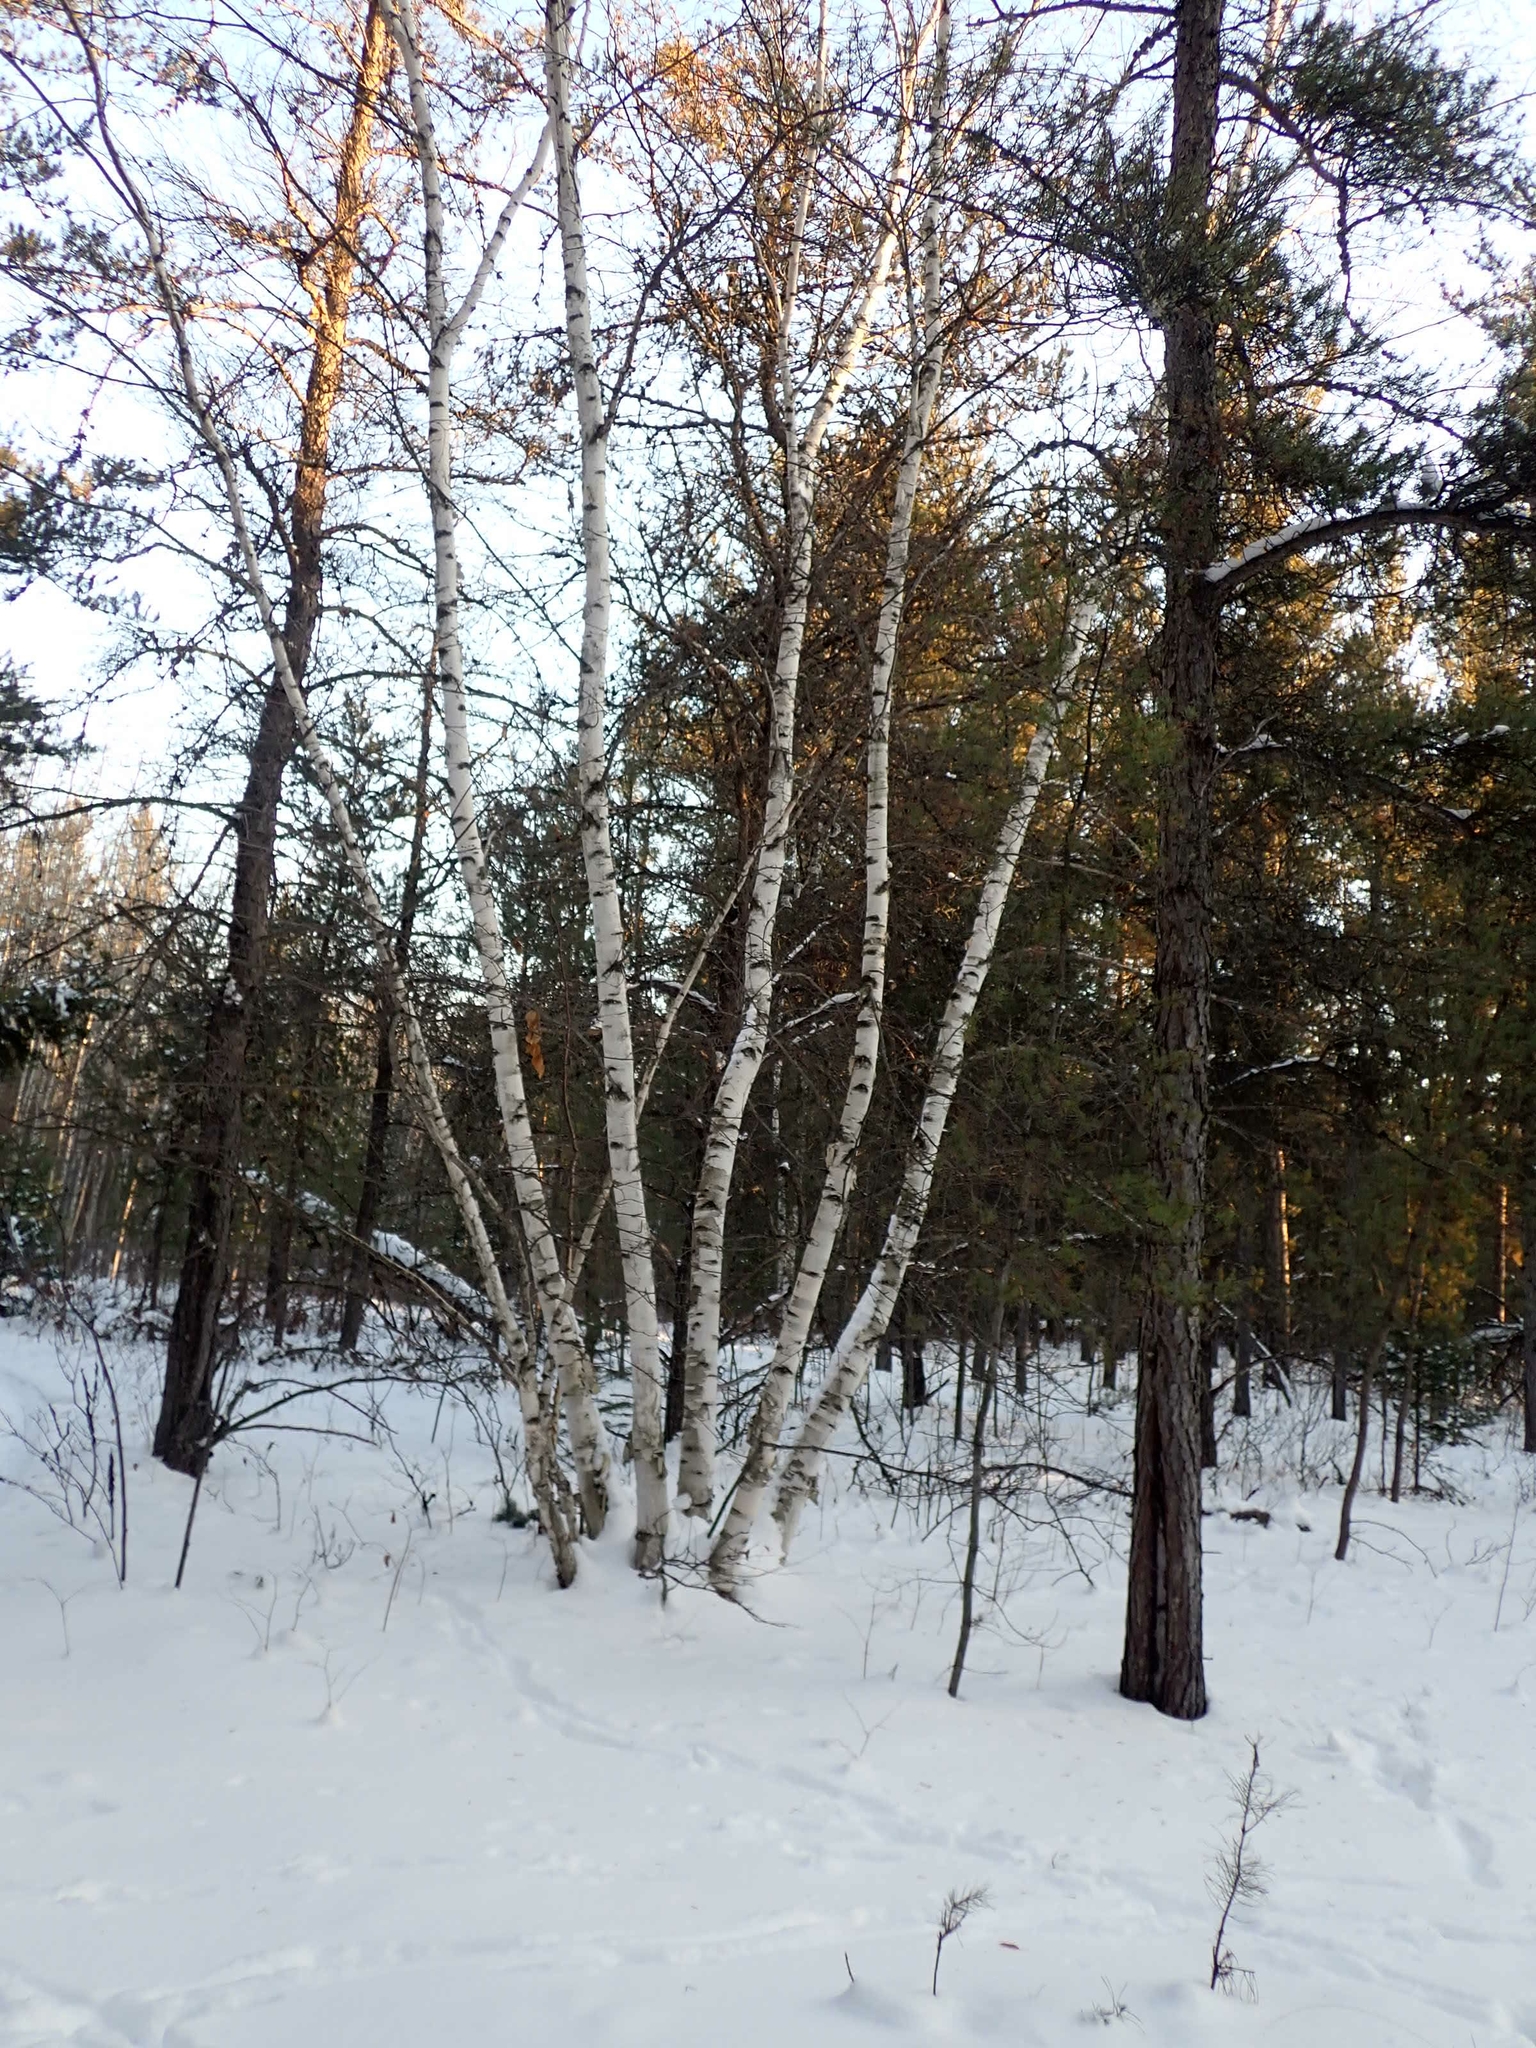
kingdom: Plantae
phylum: Tracheophyta
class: Magnoliopsida
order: Fagales
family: Betulaceae
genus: Betula
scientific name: Betula papyrifera
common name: Paper birch
